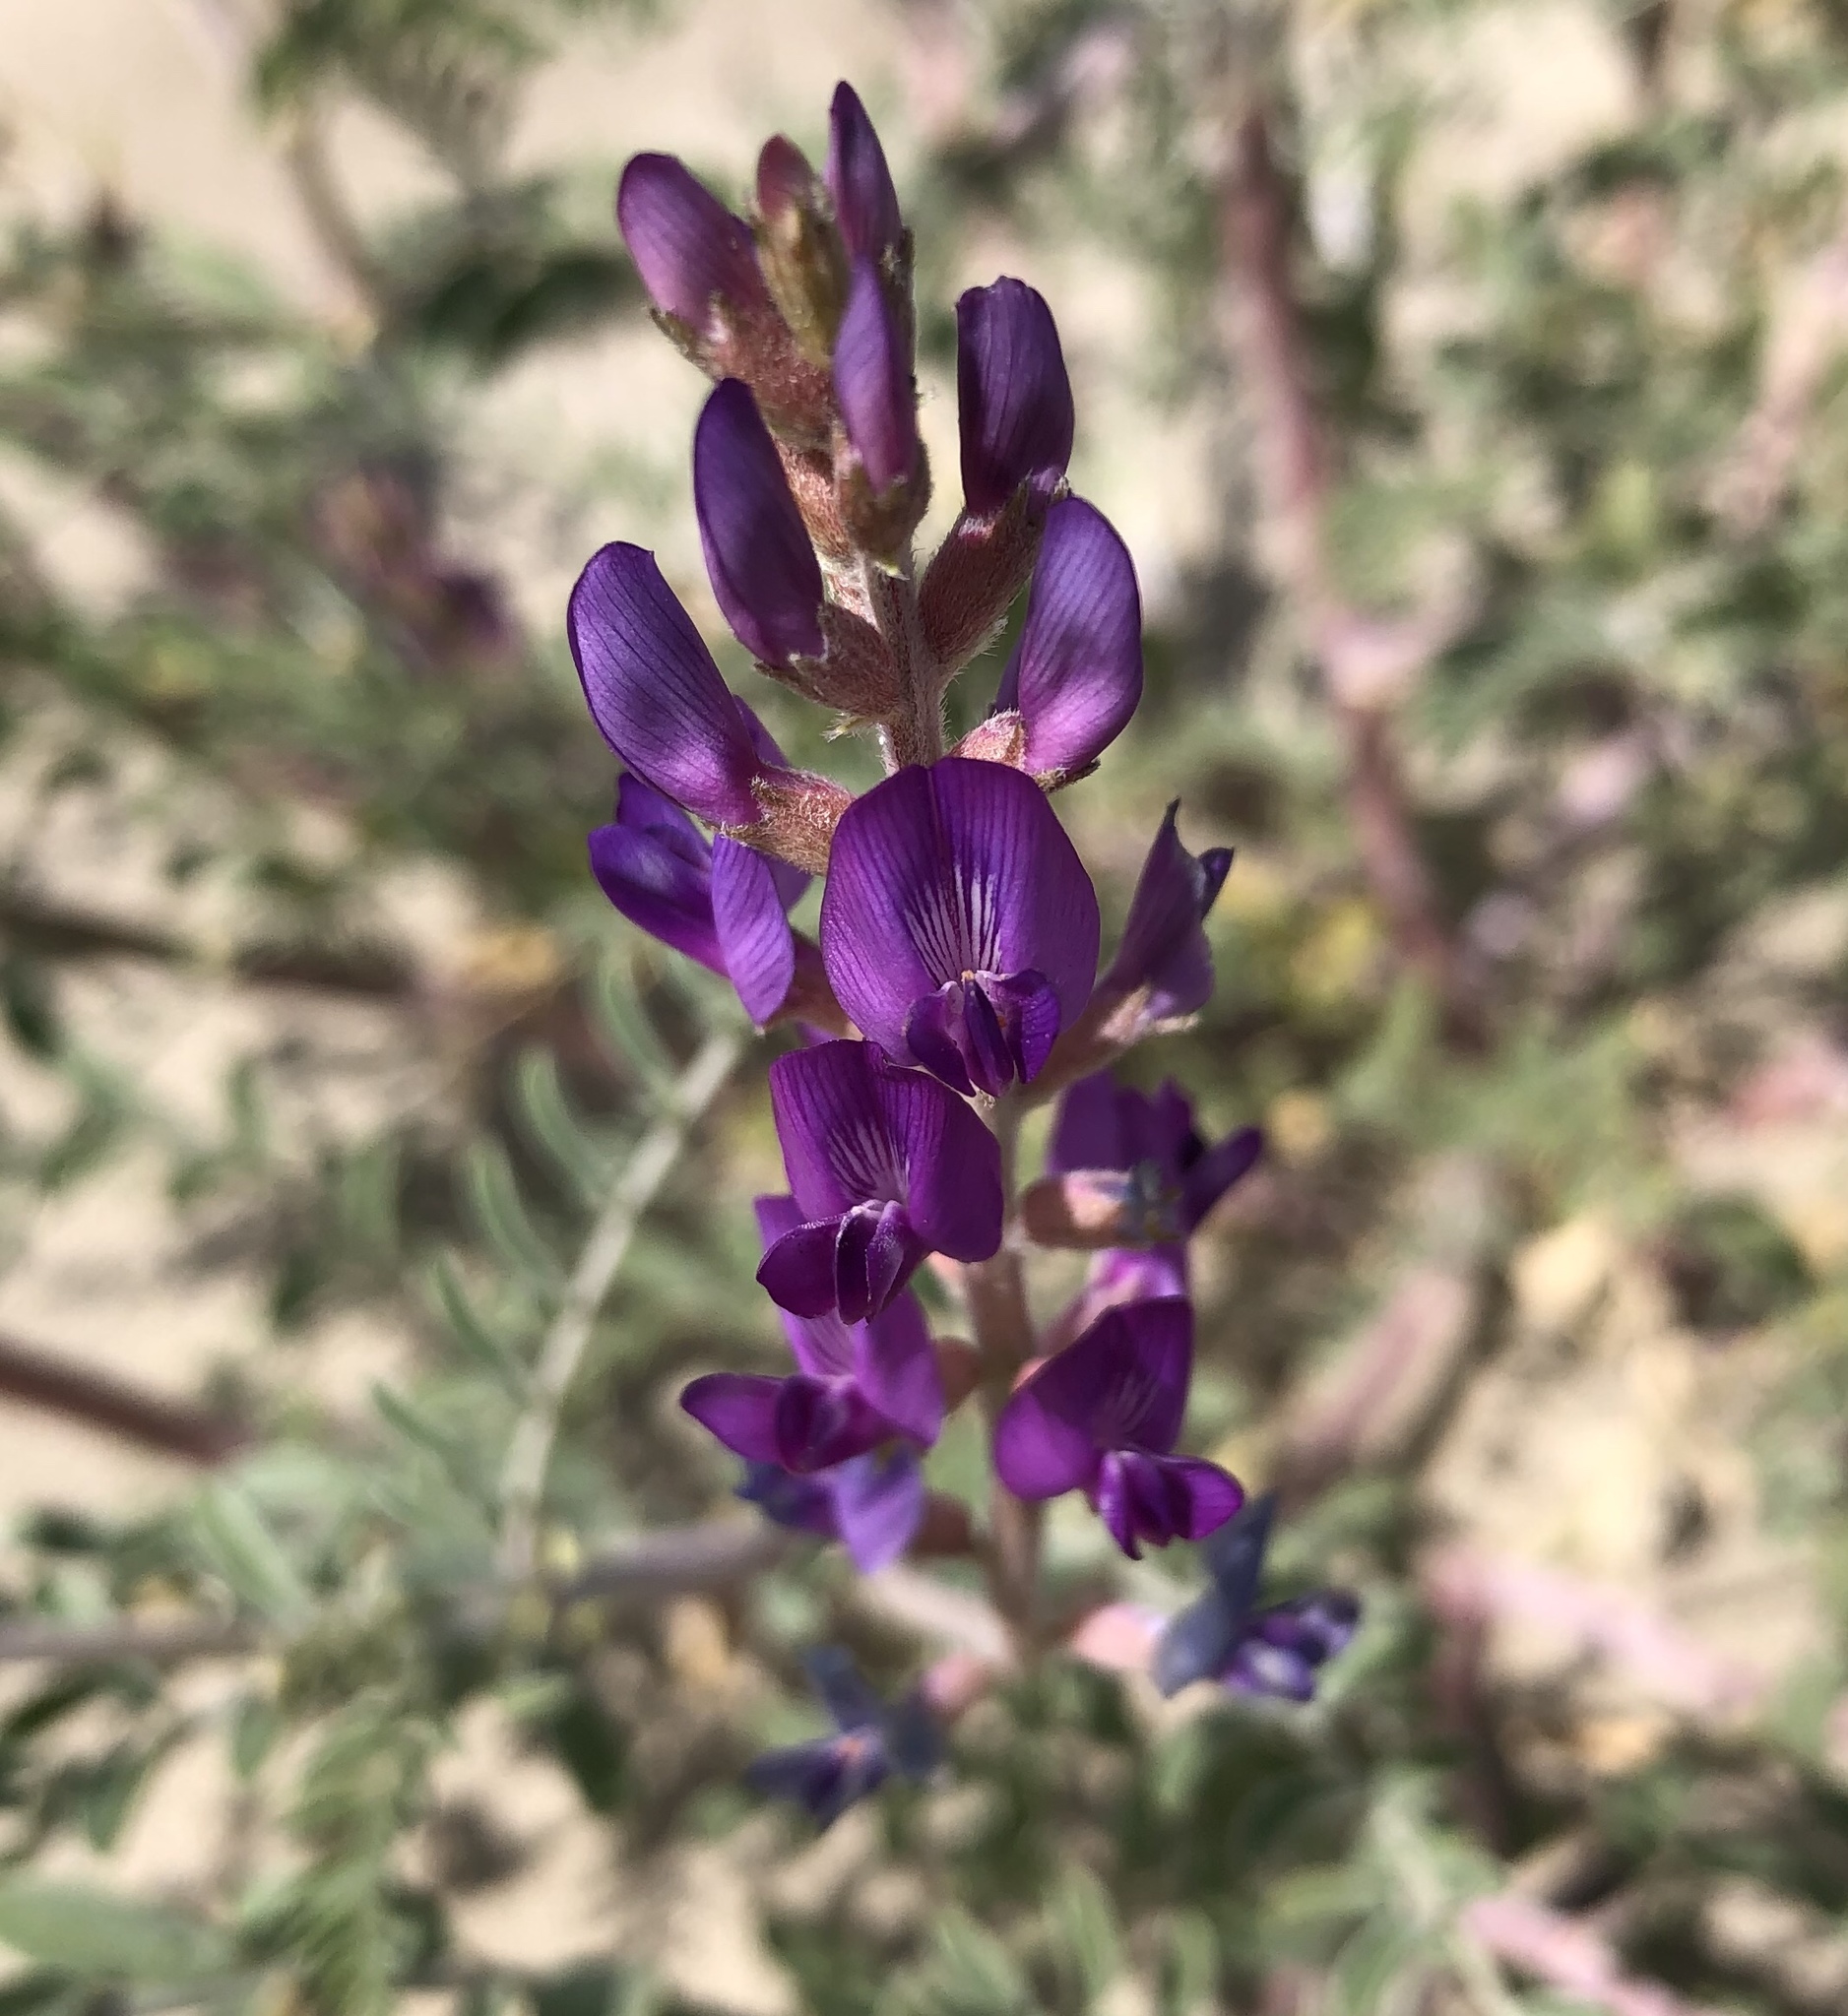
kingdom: Plantae
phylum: Tracheophyta
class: Magnoliopsida
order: Fabales
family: Fabaceae
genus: Astragalus
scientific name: Astragalus lentiginosus
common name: Freckled milkvetch
